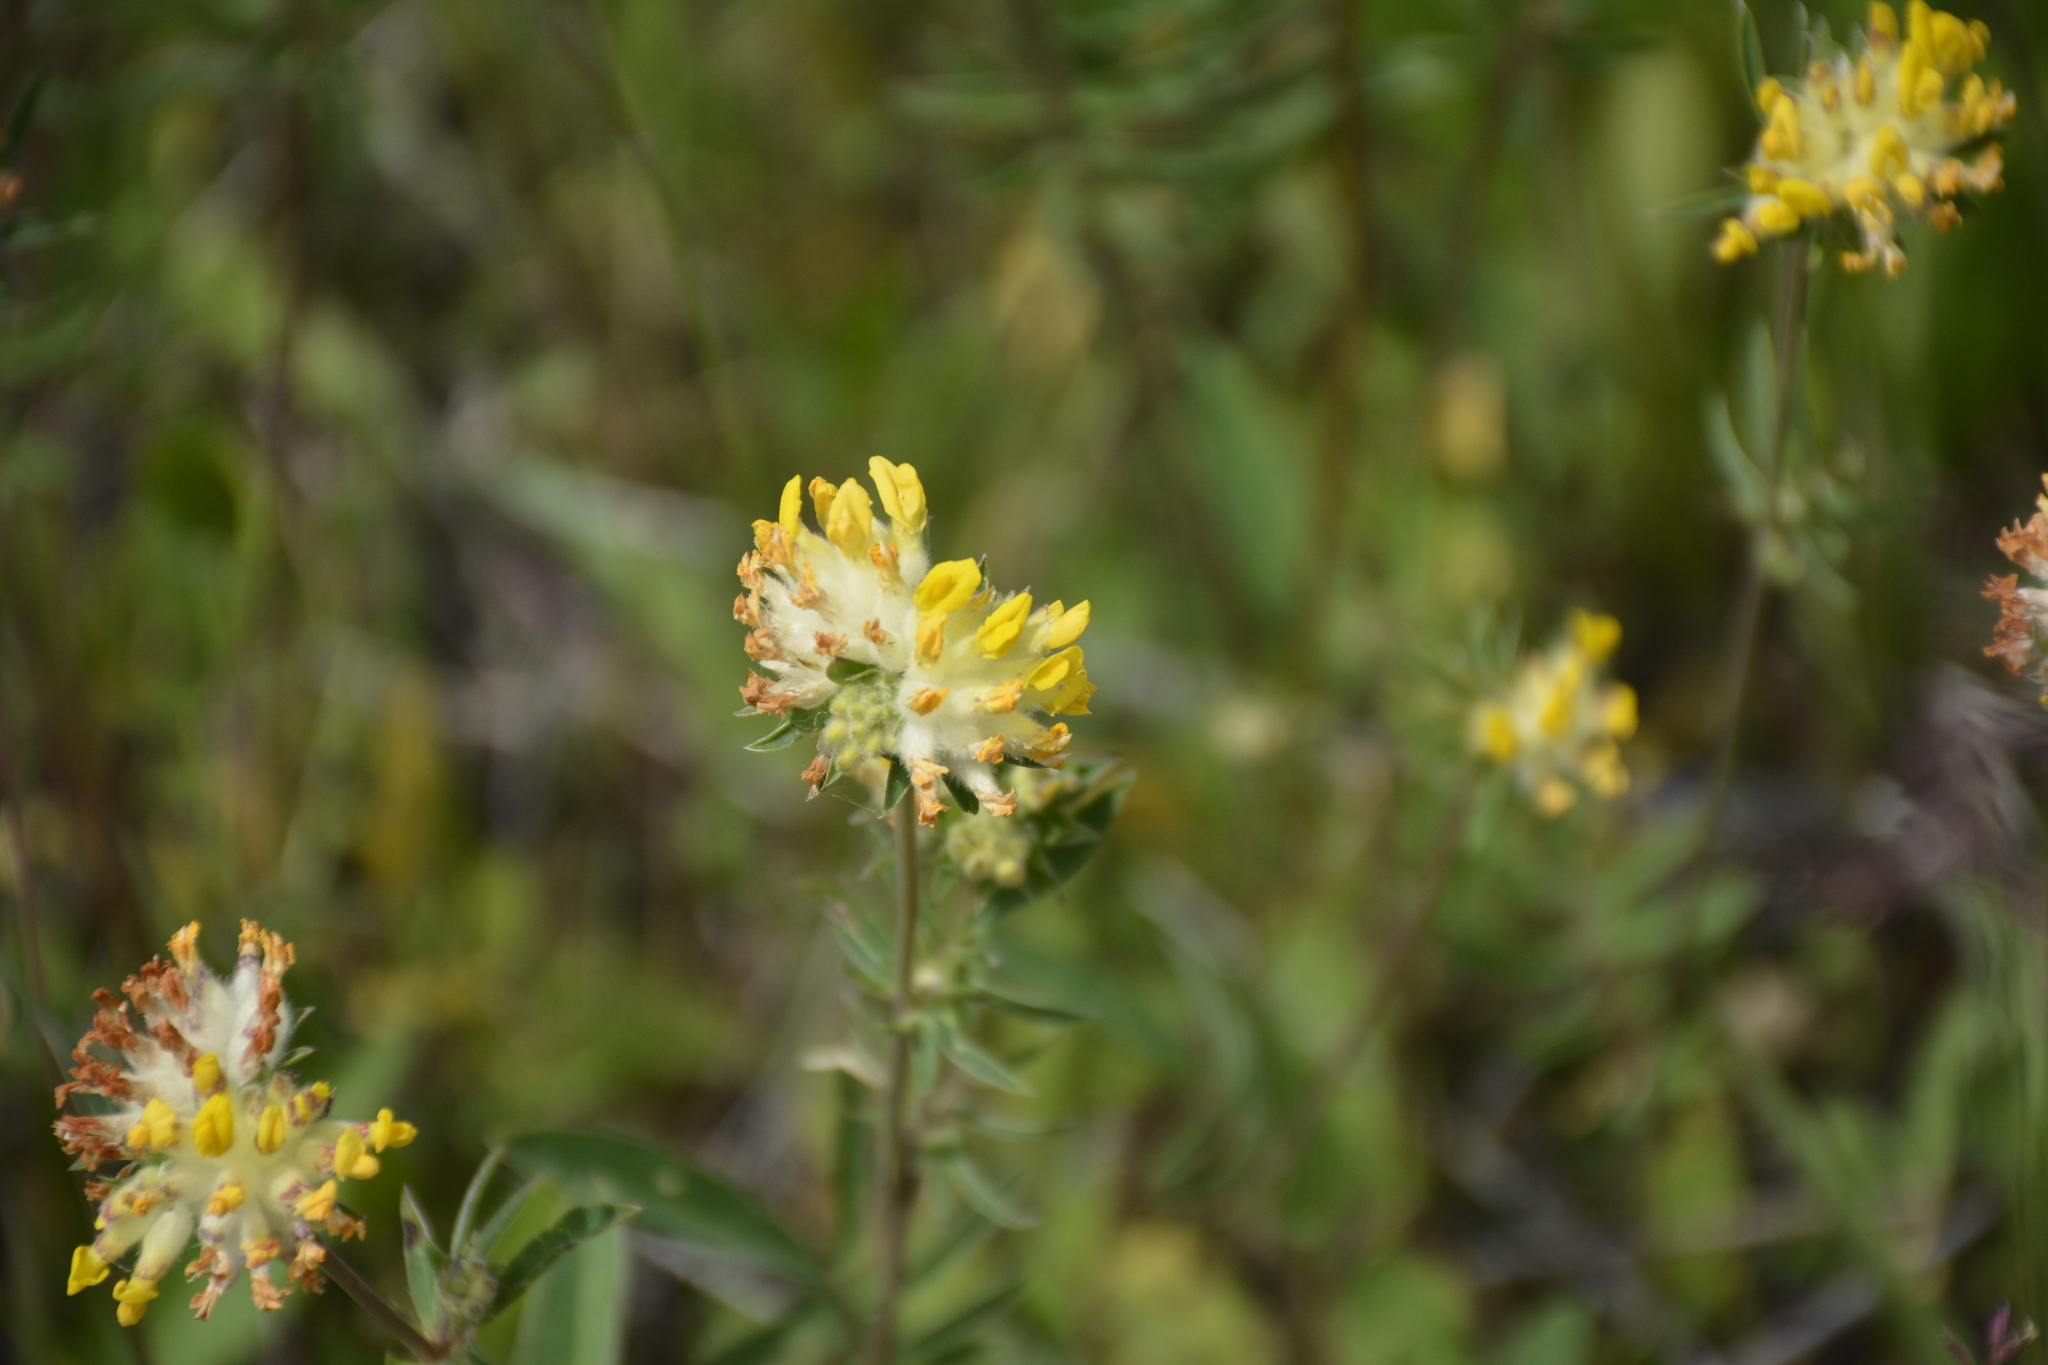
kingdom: Plantae
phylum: Tracheophyta
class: Magnoliopsida
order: Fabales
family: Fabaceae
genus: Anthyllis
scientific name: Anthyllis vulneraria
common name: Kidney vetch
